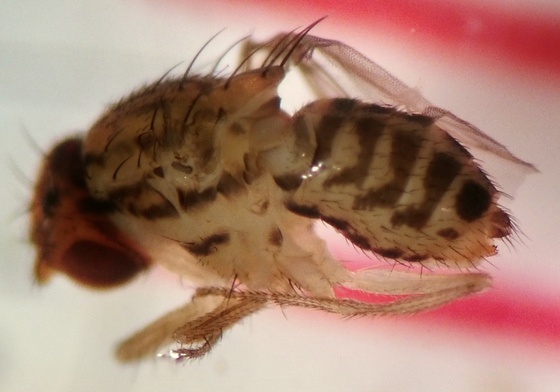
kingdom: Animalia
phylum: Arthropoda
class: Insecta
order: Diptera
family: Drosophilidae
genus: Drosophila
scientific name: Drosophila busckii
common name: Pomace fly
